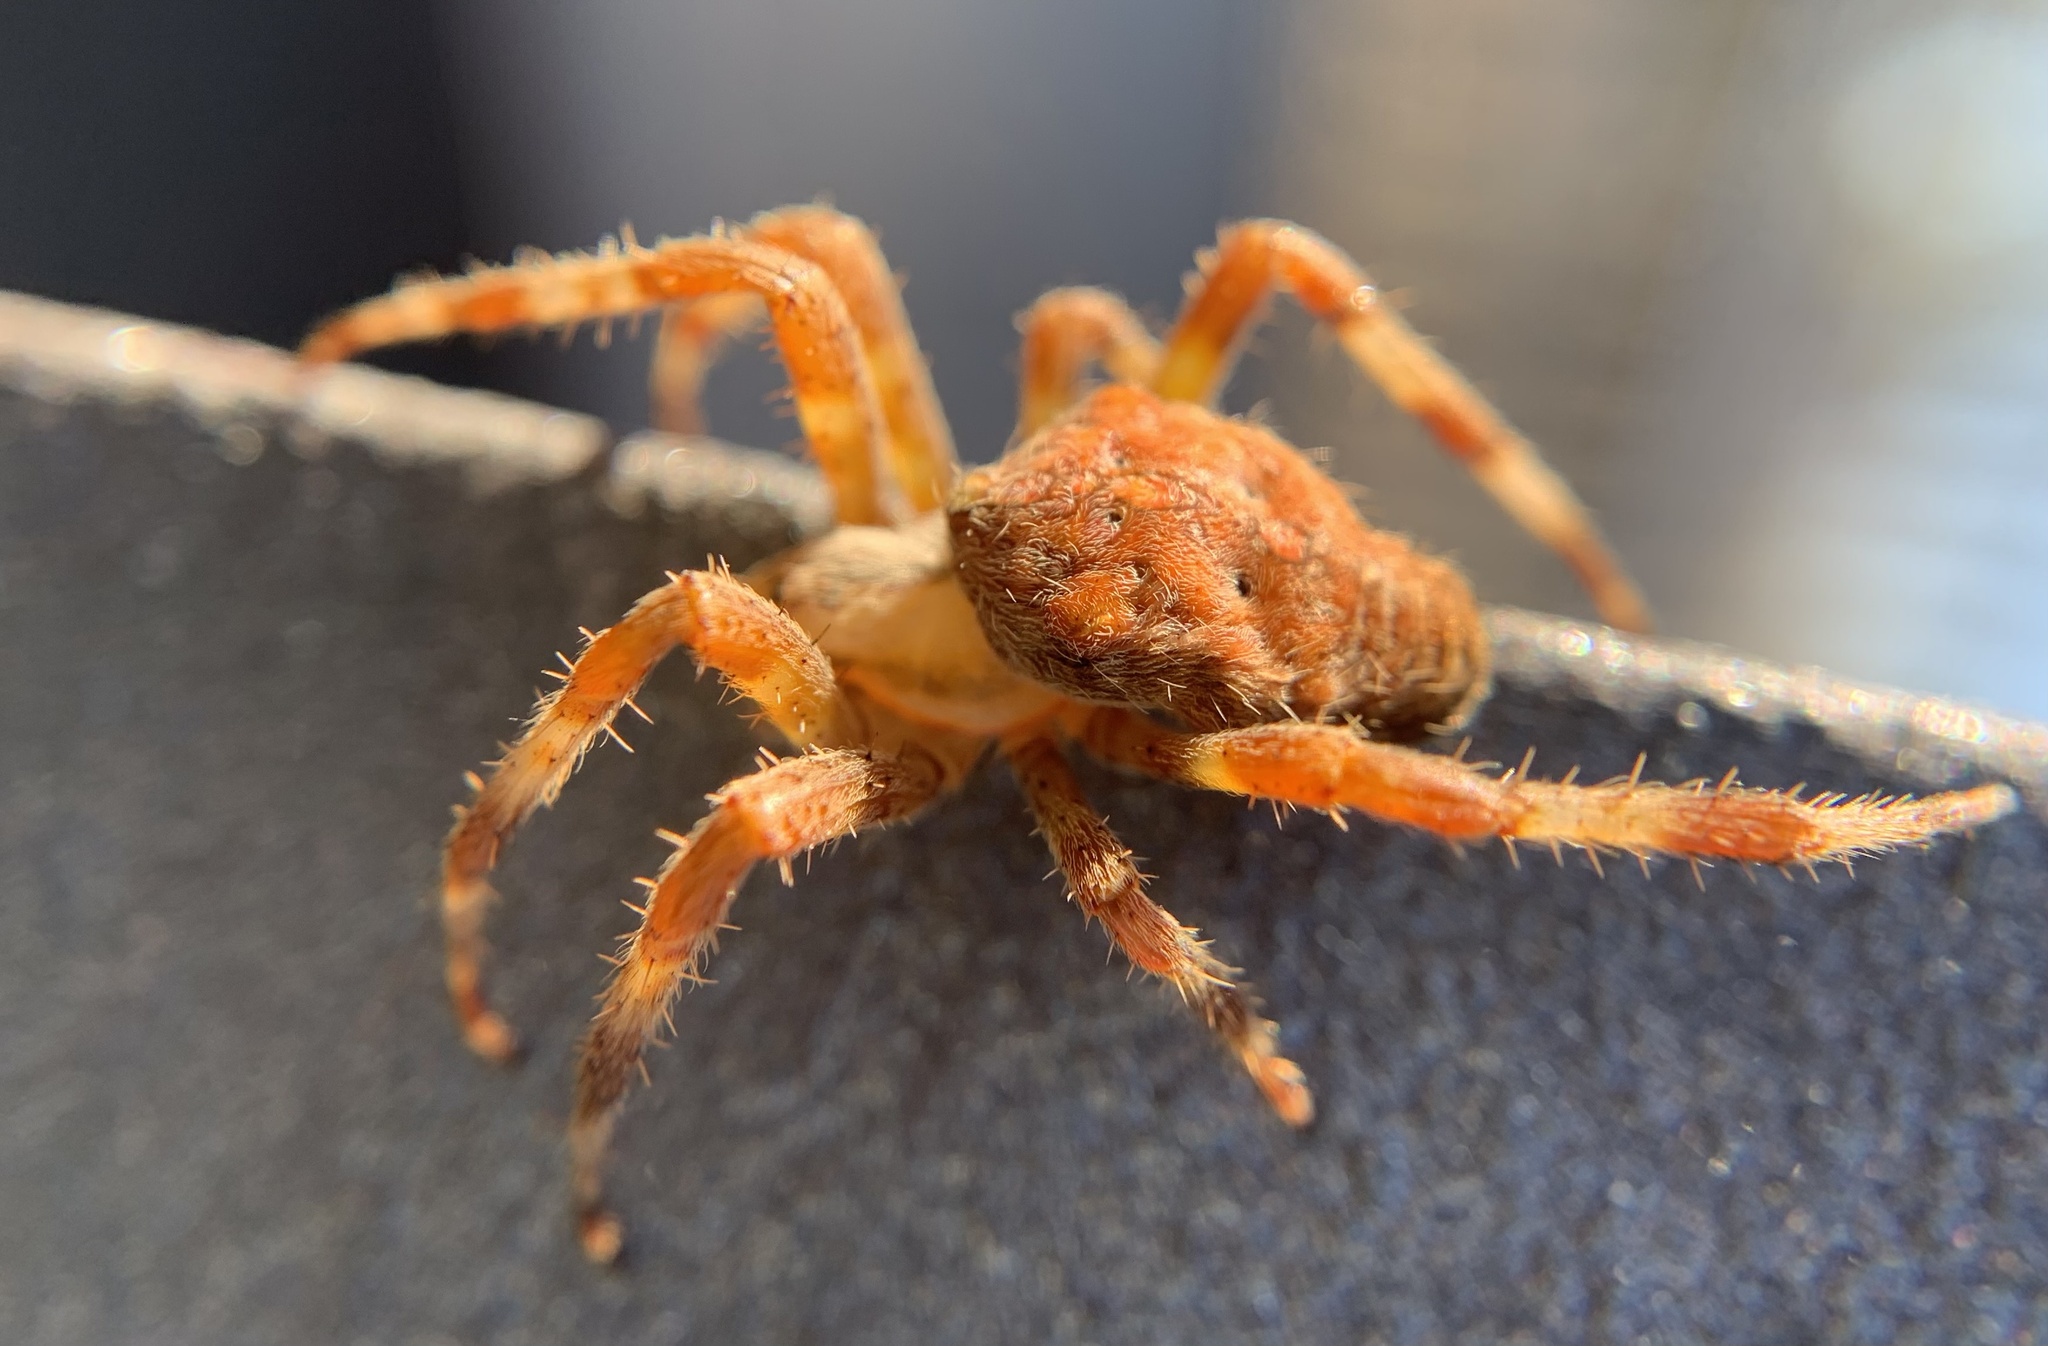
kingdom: Animalia
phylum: Arthropoda
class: Arachnida
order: Araneae
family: Araneidae
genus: Araneus
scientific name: Araneus diadematus
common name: Cross orbweaver
